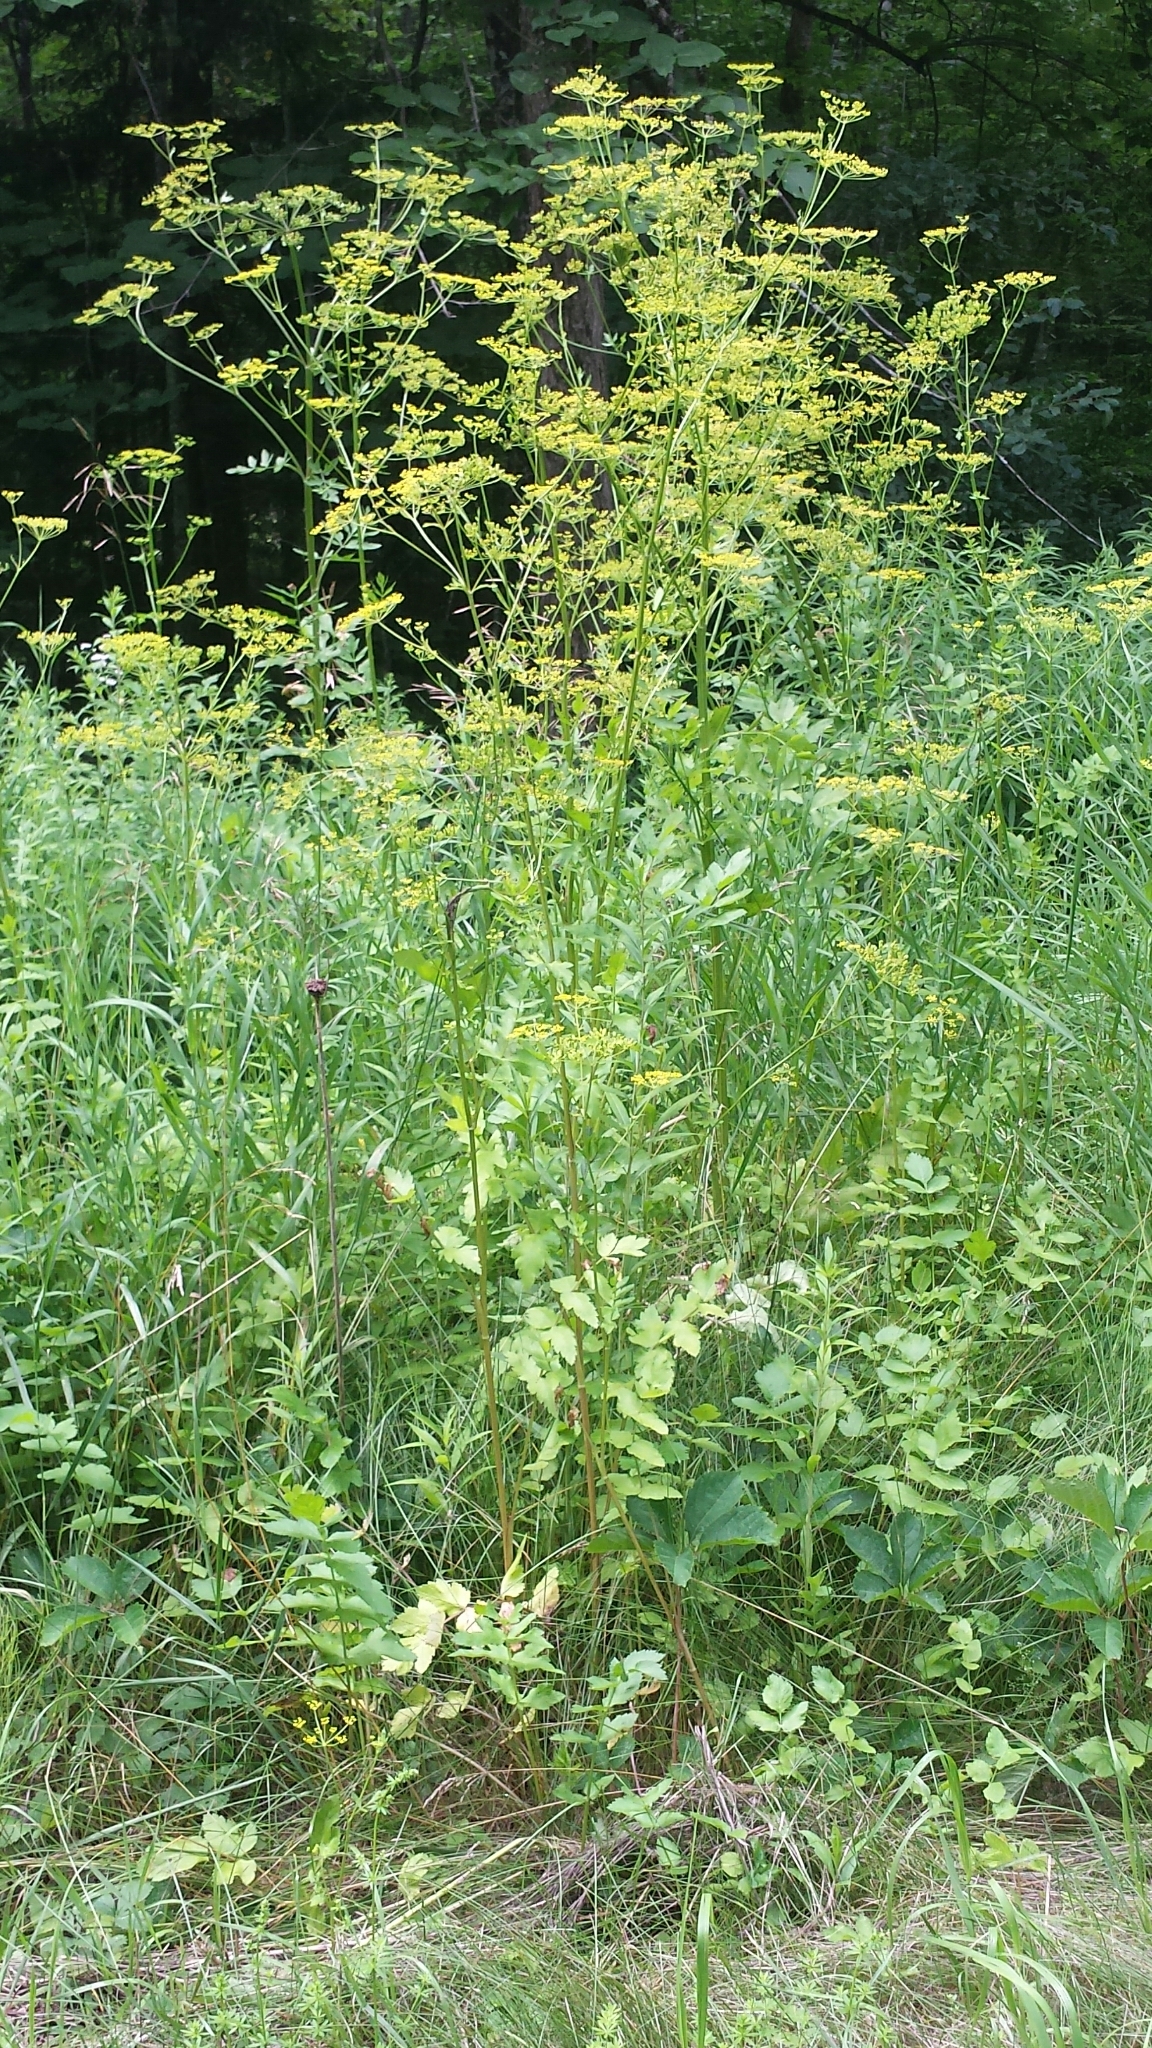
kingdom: Plantae
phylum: Tracheophyta
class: Magnoliopsida
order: Apiales
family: Apiaceae
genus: Pastinaca
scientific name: Pastinaca sativa
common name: Wild parsnip
